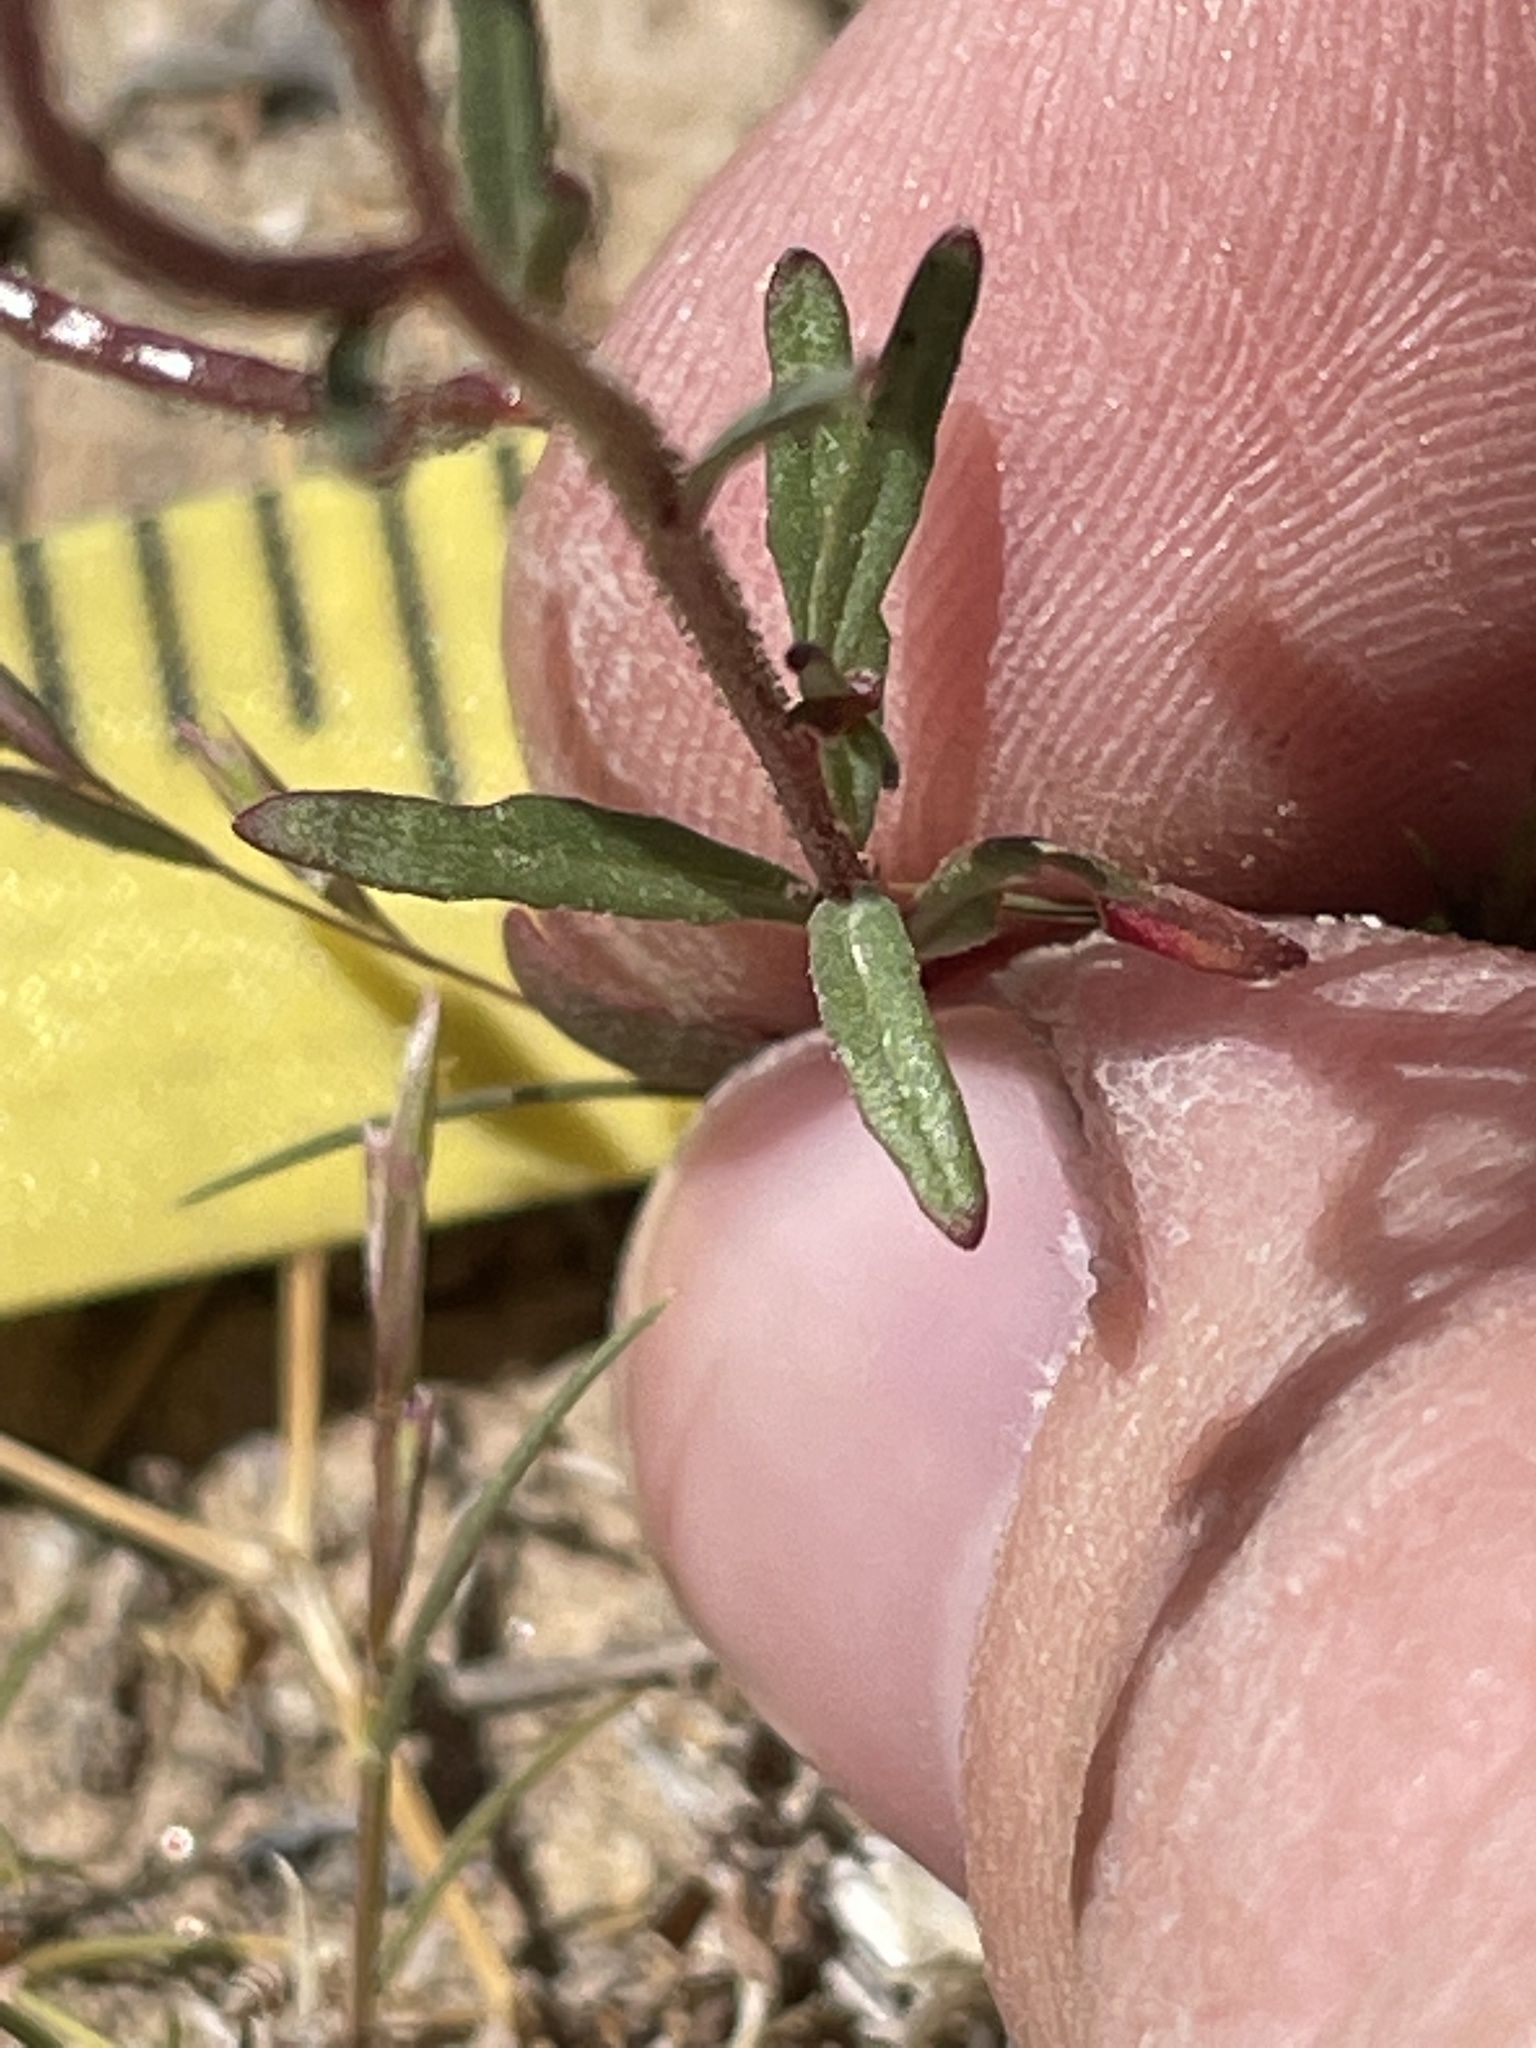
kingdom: Plantae
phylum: Tracheophyta
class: Magnoliopsida
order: Myrtales
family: Onagraceae
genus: Eremothera
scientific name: Eremothera refracta
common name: Narrowleaf suncup
